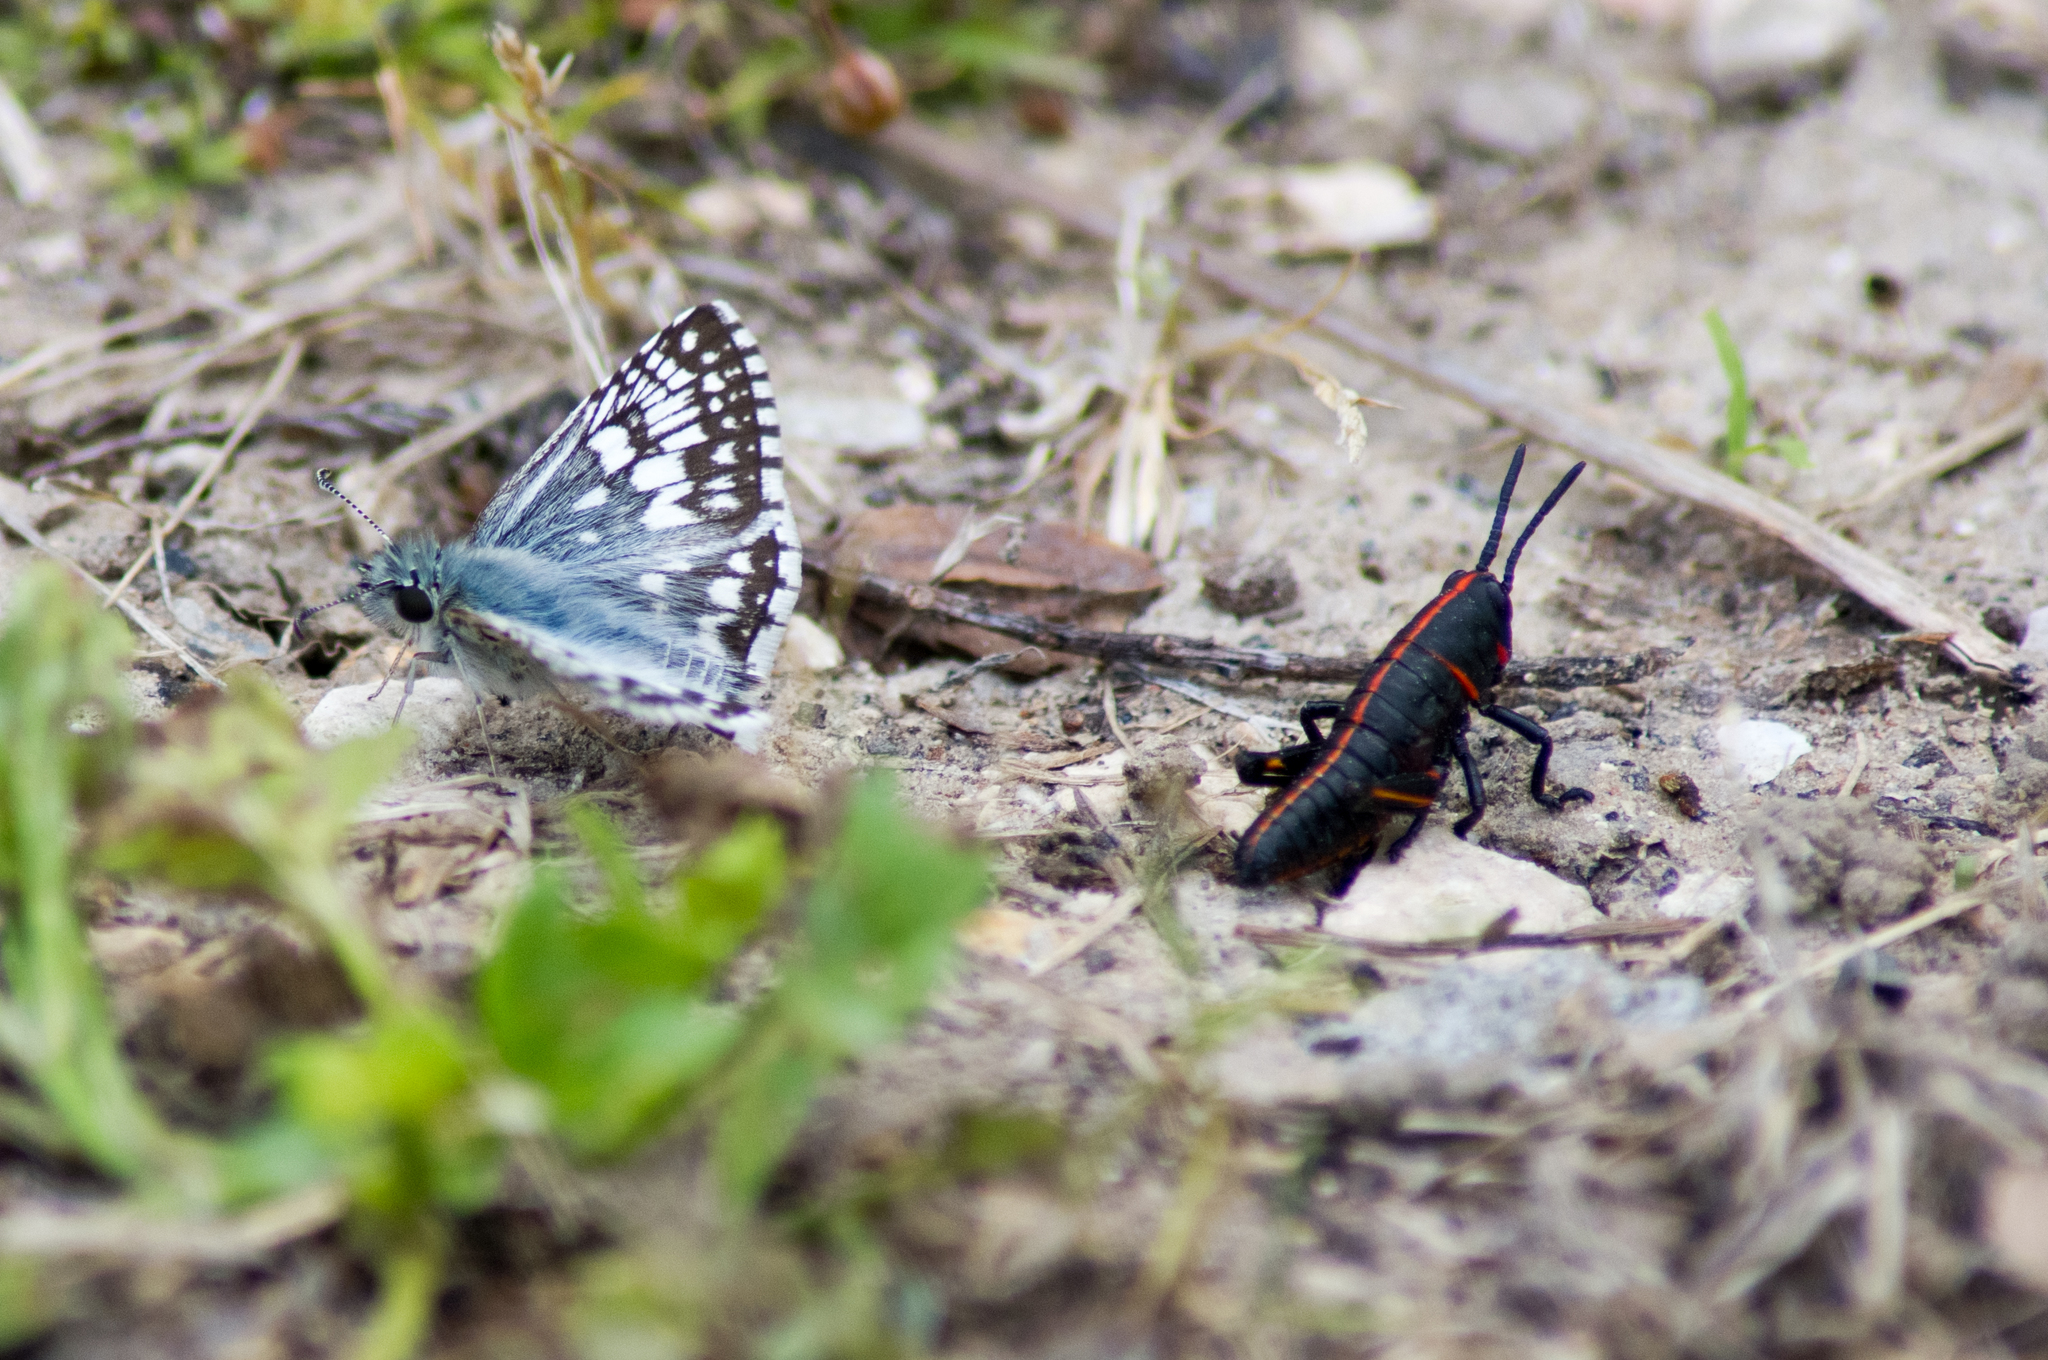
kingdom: Animalia
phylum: Arthropoda
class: Insecta
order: Orthoptera
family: Romaleidae
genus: Romalea
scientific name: Romalea microptera
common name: Eastern lubber grasshopper
